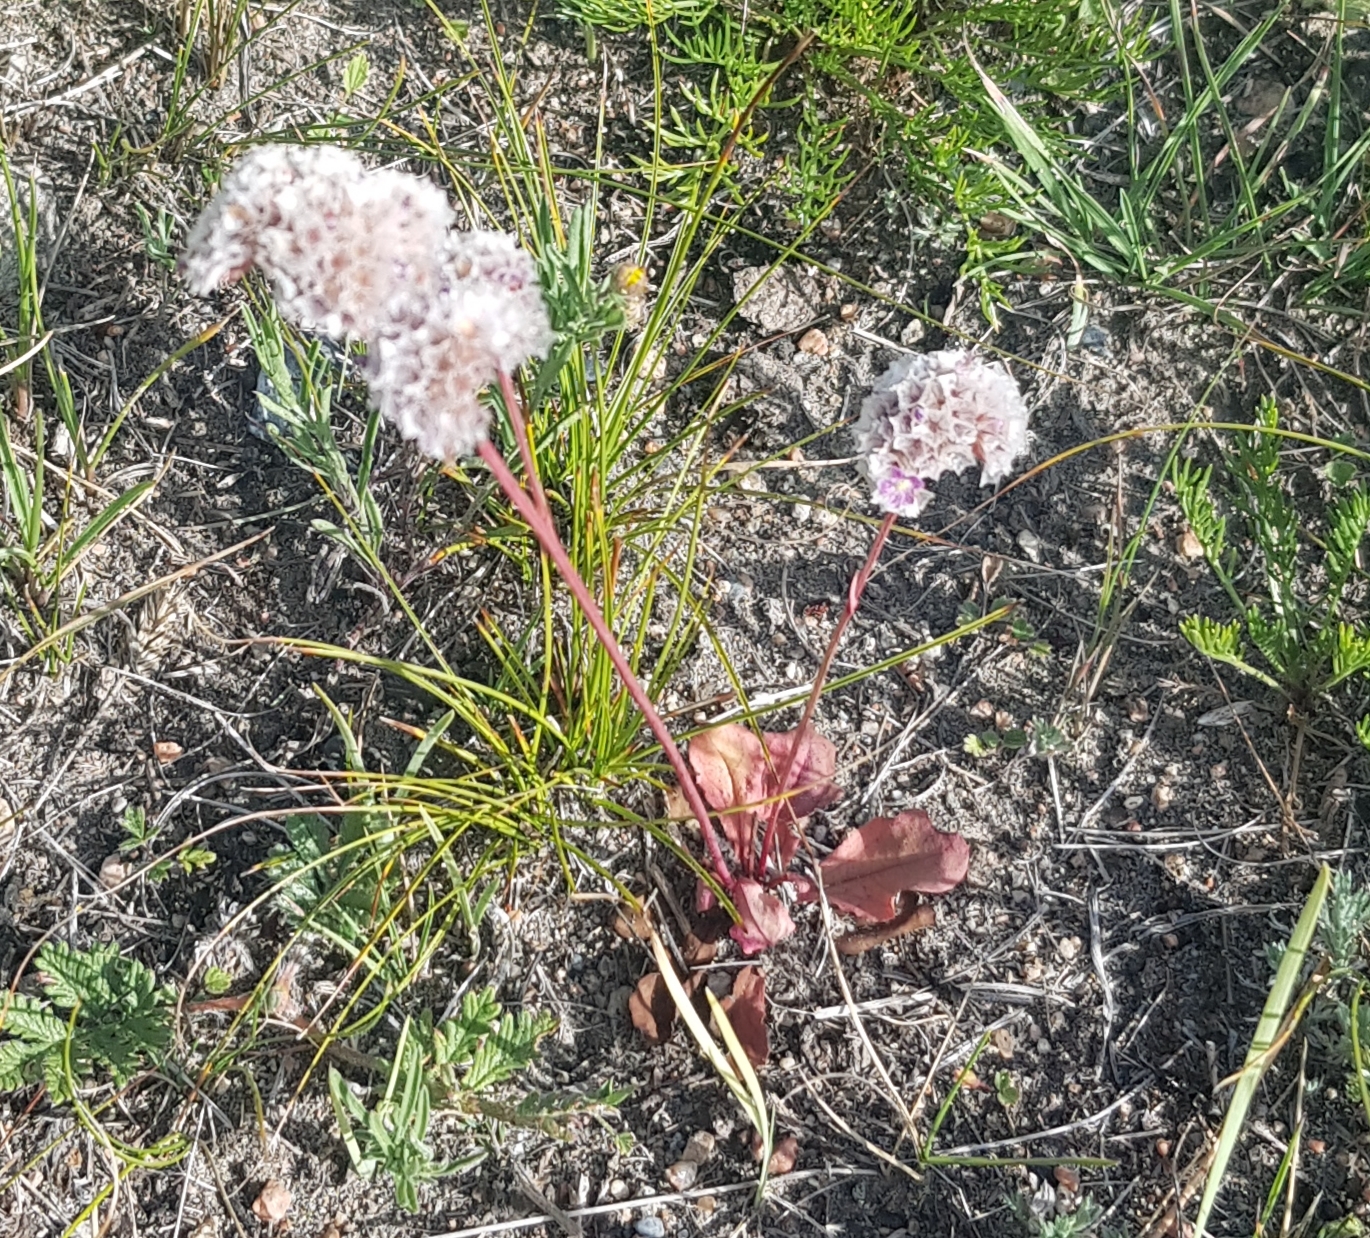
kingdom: Plantae
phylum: Tracheophyta
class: Magnoliopsida
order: Caryophyllales
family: Plumbaginaceae
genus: Goniolimon
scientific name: Goniolimon speciosum
